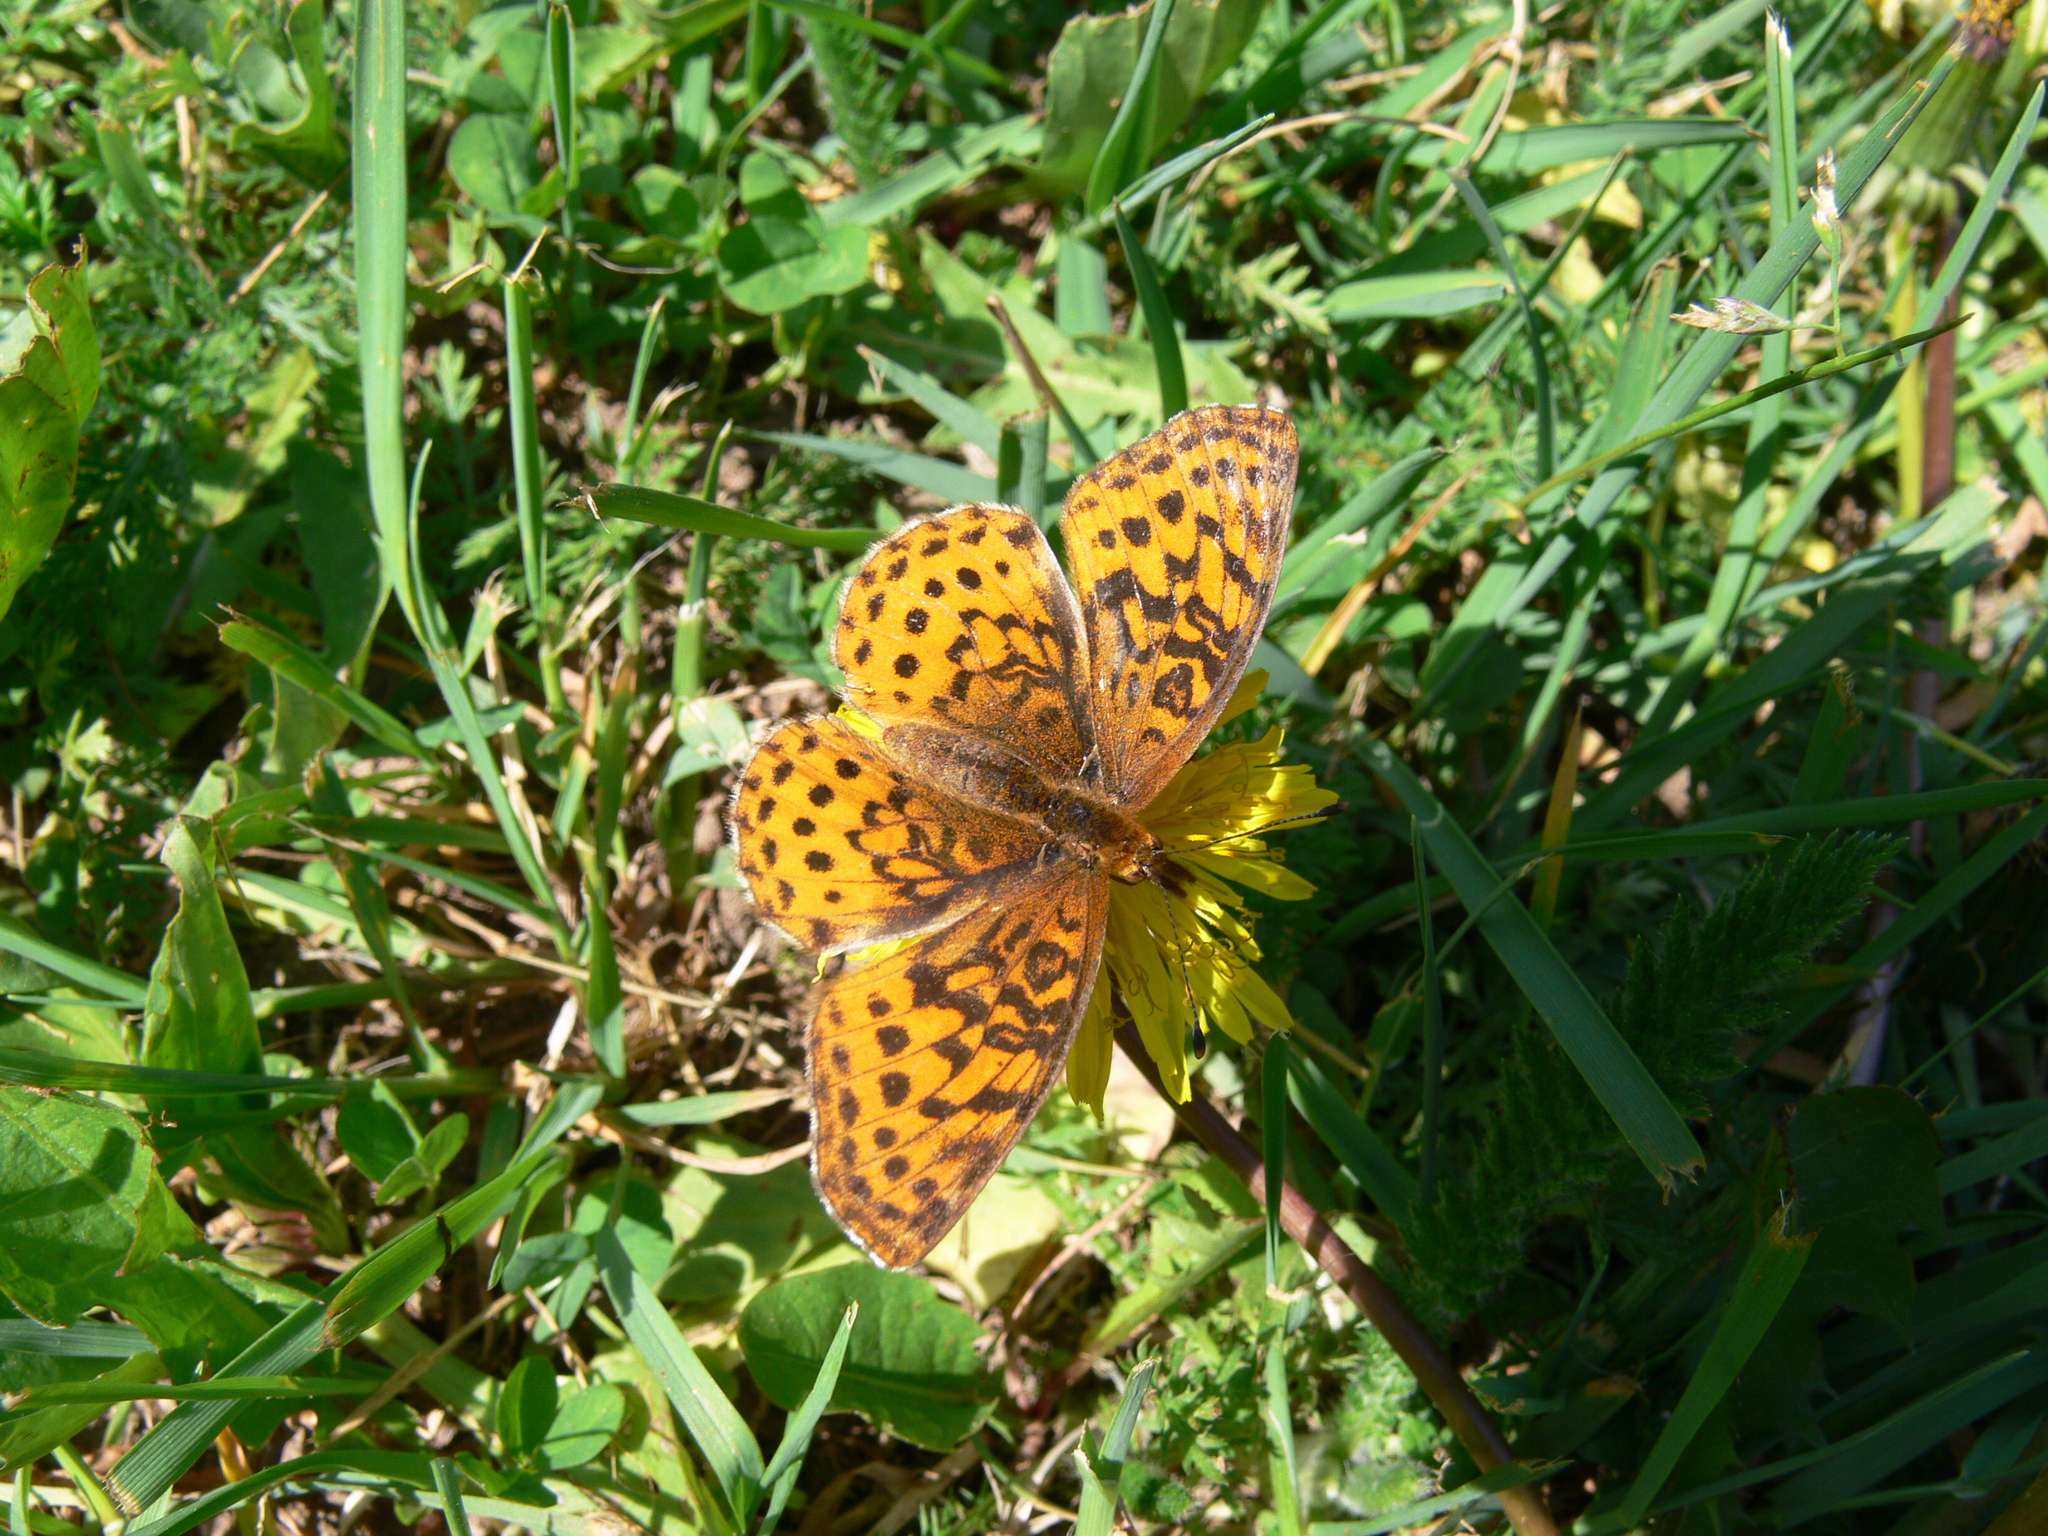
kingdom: Animalia
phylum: Arthropoda
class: Insecta
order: Lepidoptera
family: Nymphalidae
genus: Clossiana
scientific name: Clossiana toddi
